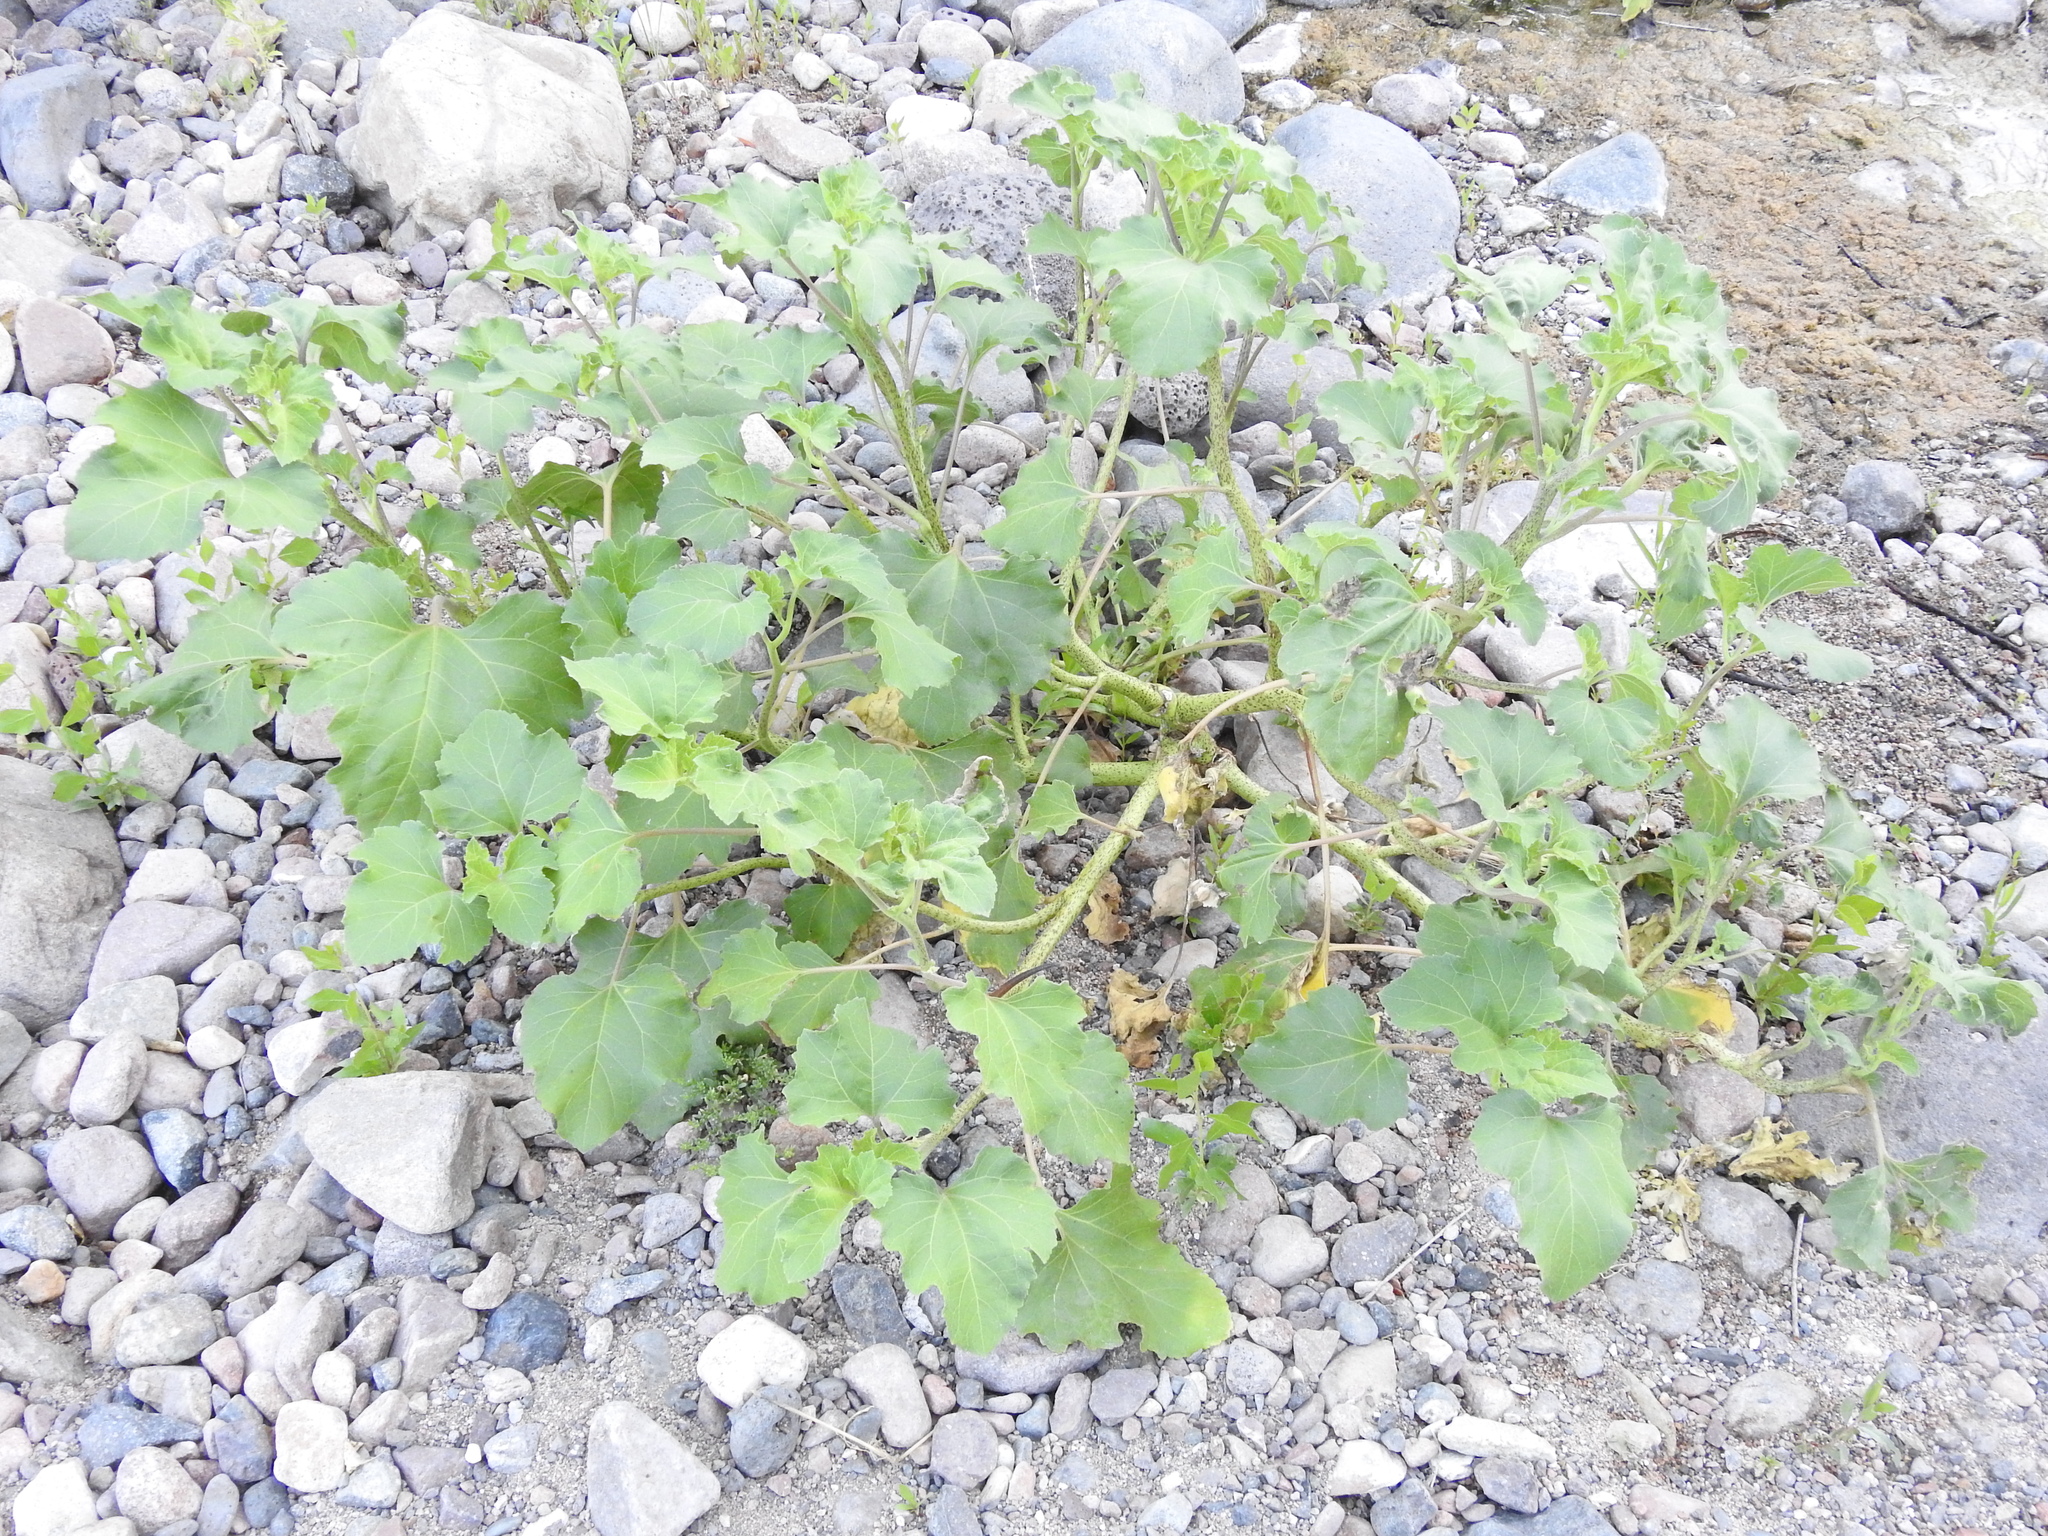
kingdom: Plantae
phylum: Tracheophyta
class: Magnoliopsida
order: Asterales
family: Asteraceae
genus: Xanthium
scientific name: Xanthium strumarium
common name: Rough cocklebur
